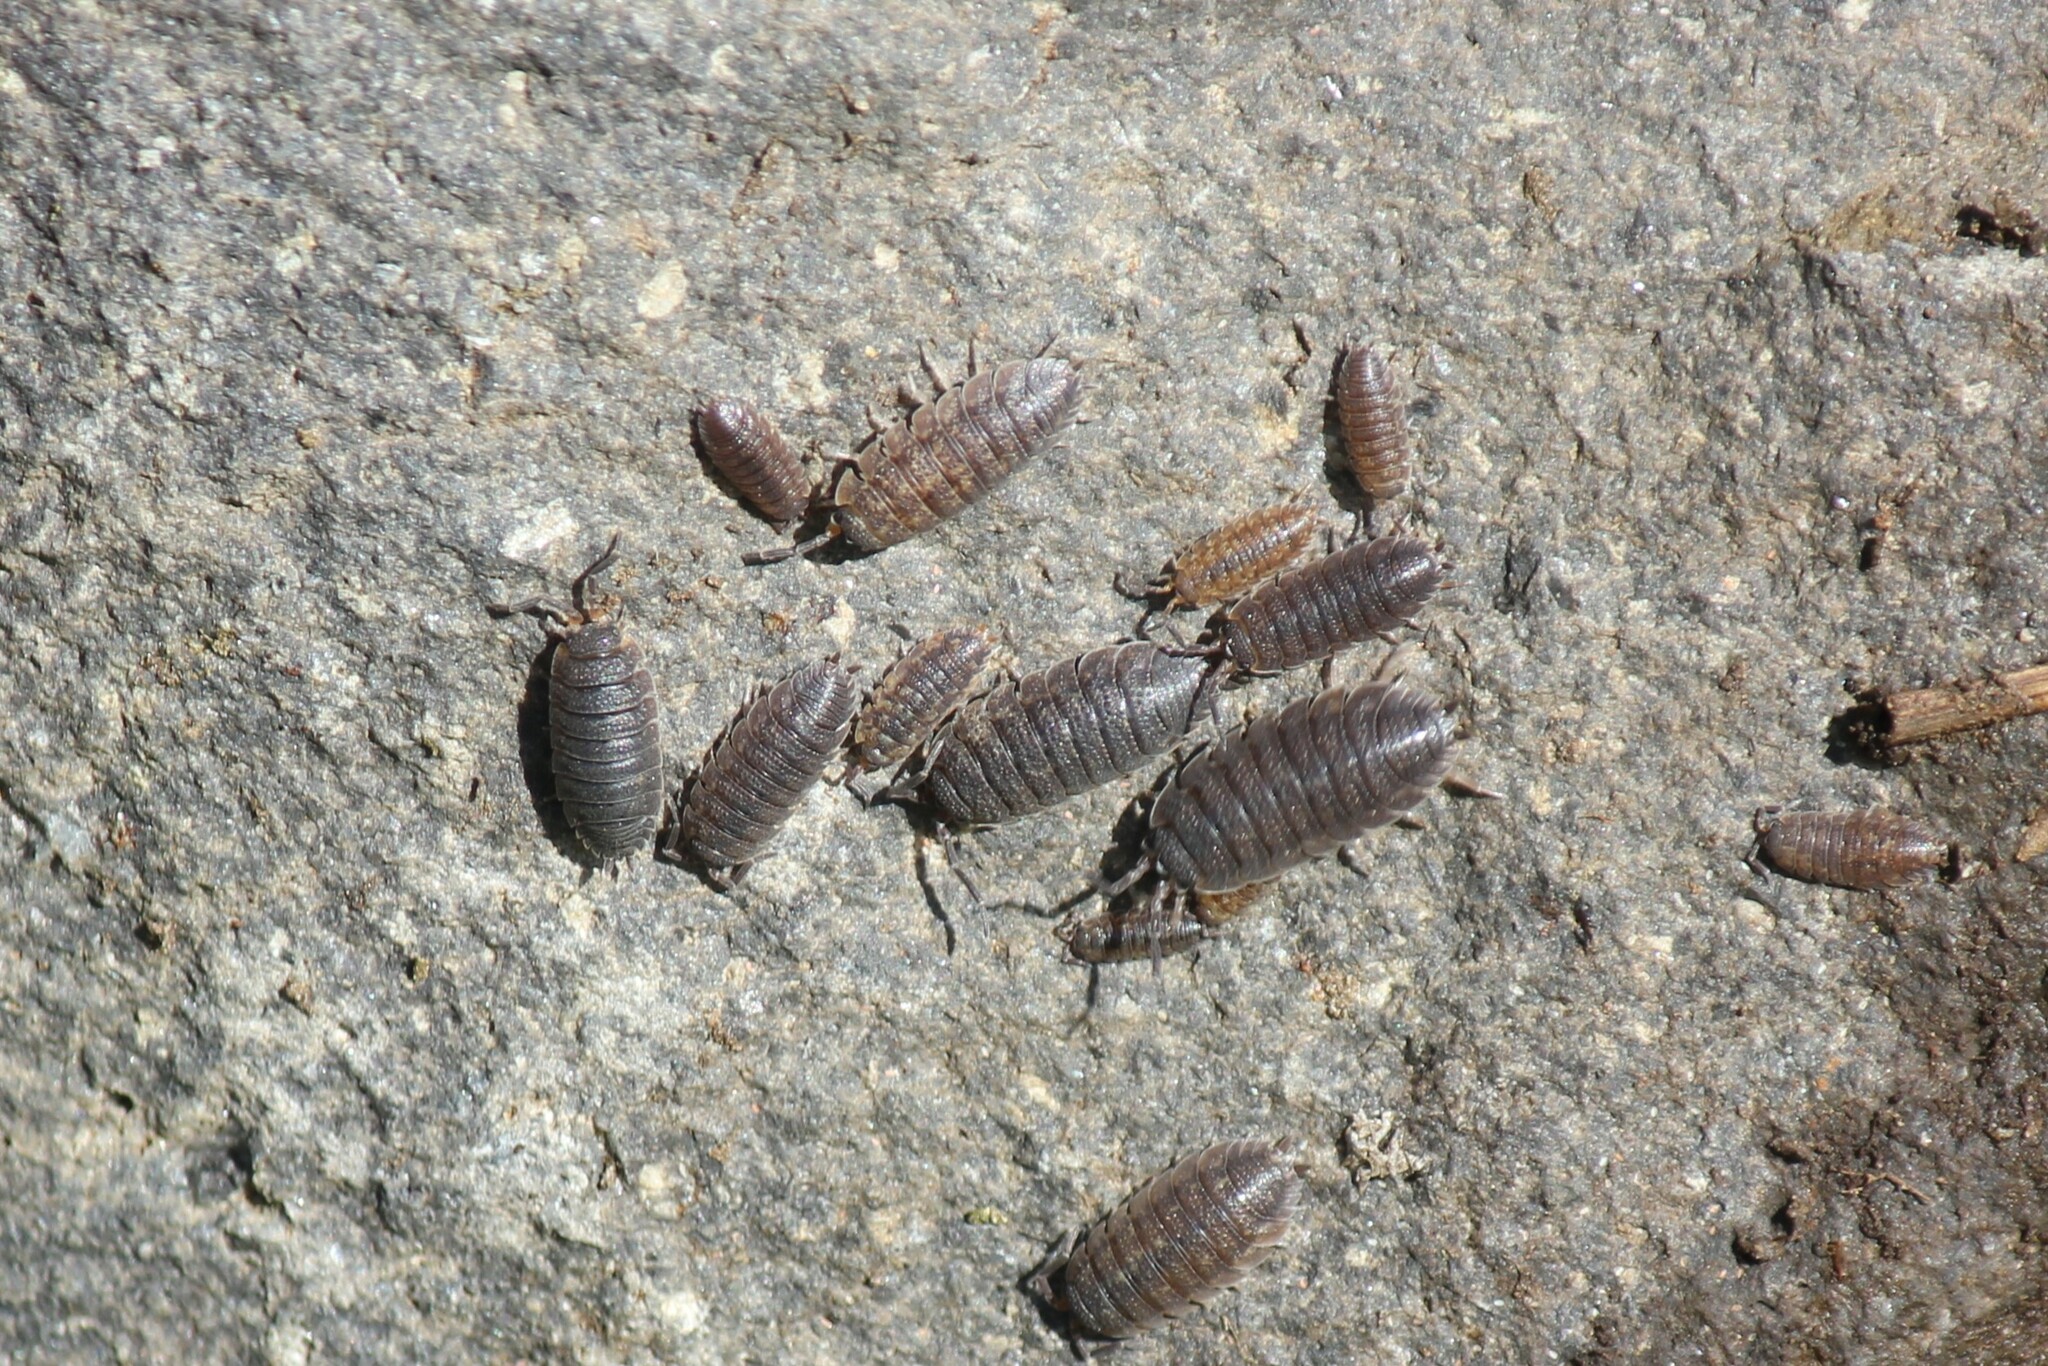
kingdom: Animalia
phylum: Arthropoda
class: Malacostraca
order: Isopoda
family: Porcellionidae
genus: Porcellio
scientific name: Porcellio scaber
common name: Common rough woodlouse
